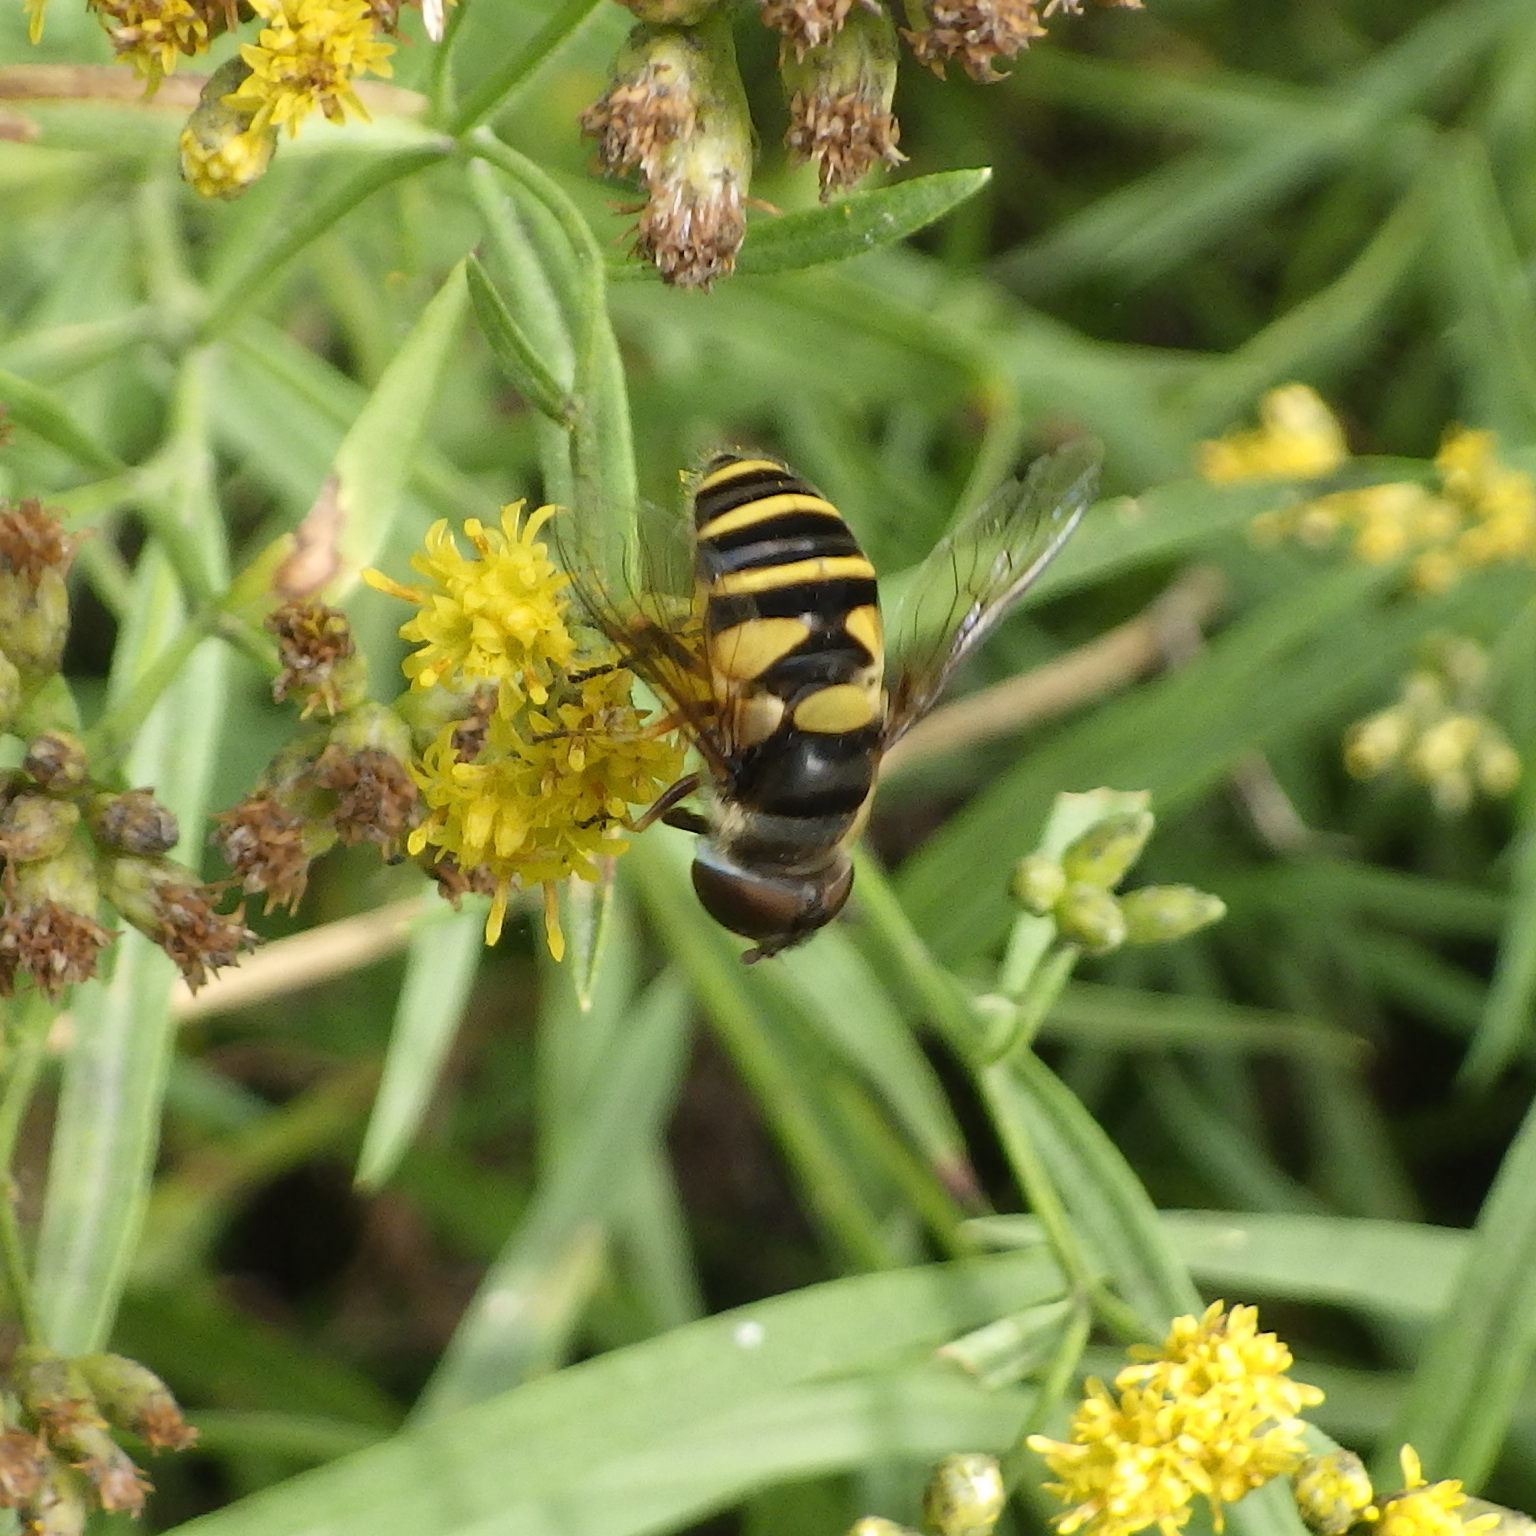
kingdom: Animalia
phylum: Arthropoda
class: Insecta
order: Diptera
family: Syrphidae
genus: Eristalis
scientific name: Eristalis transversa
